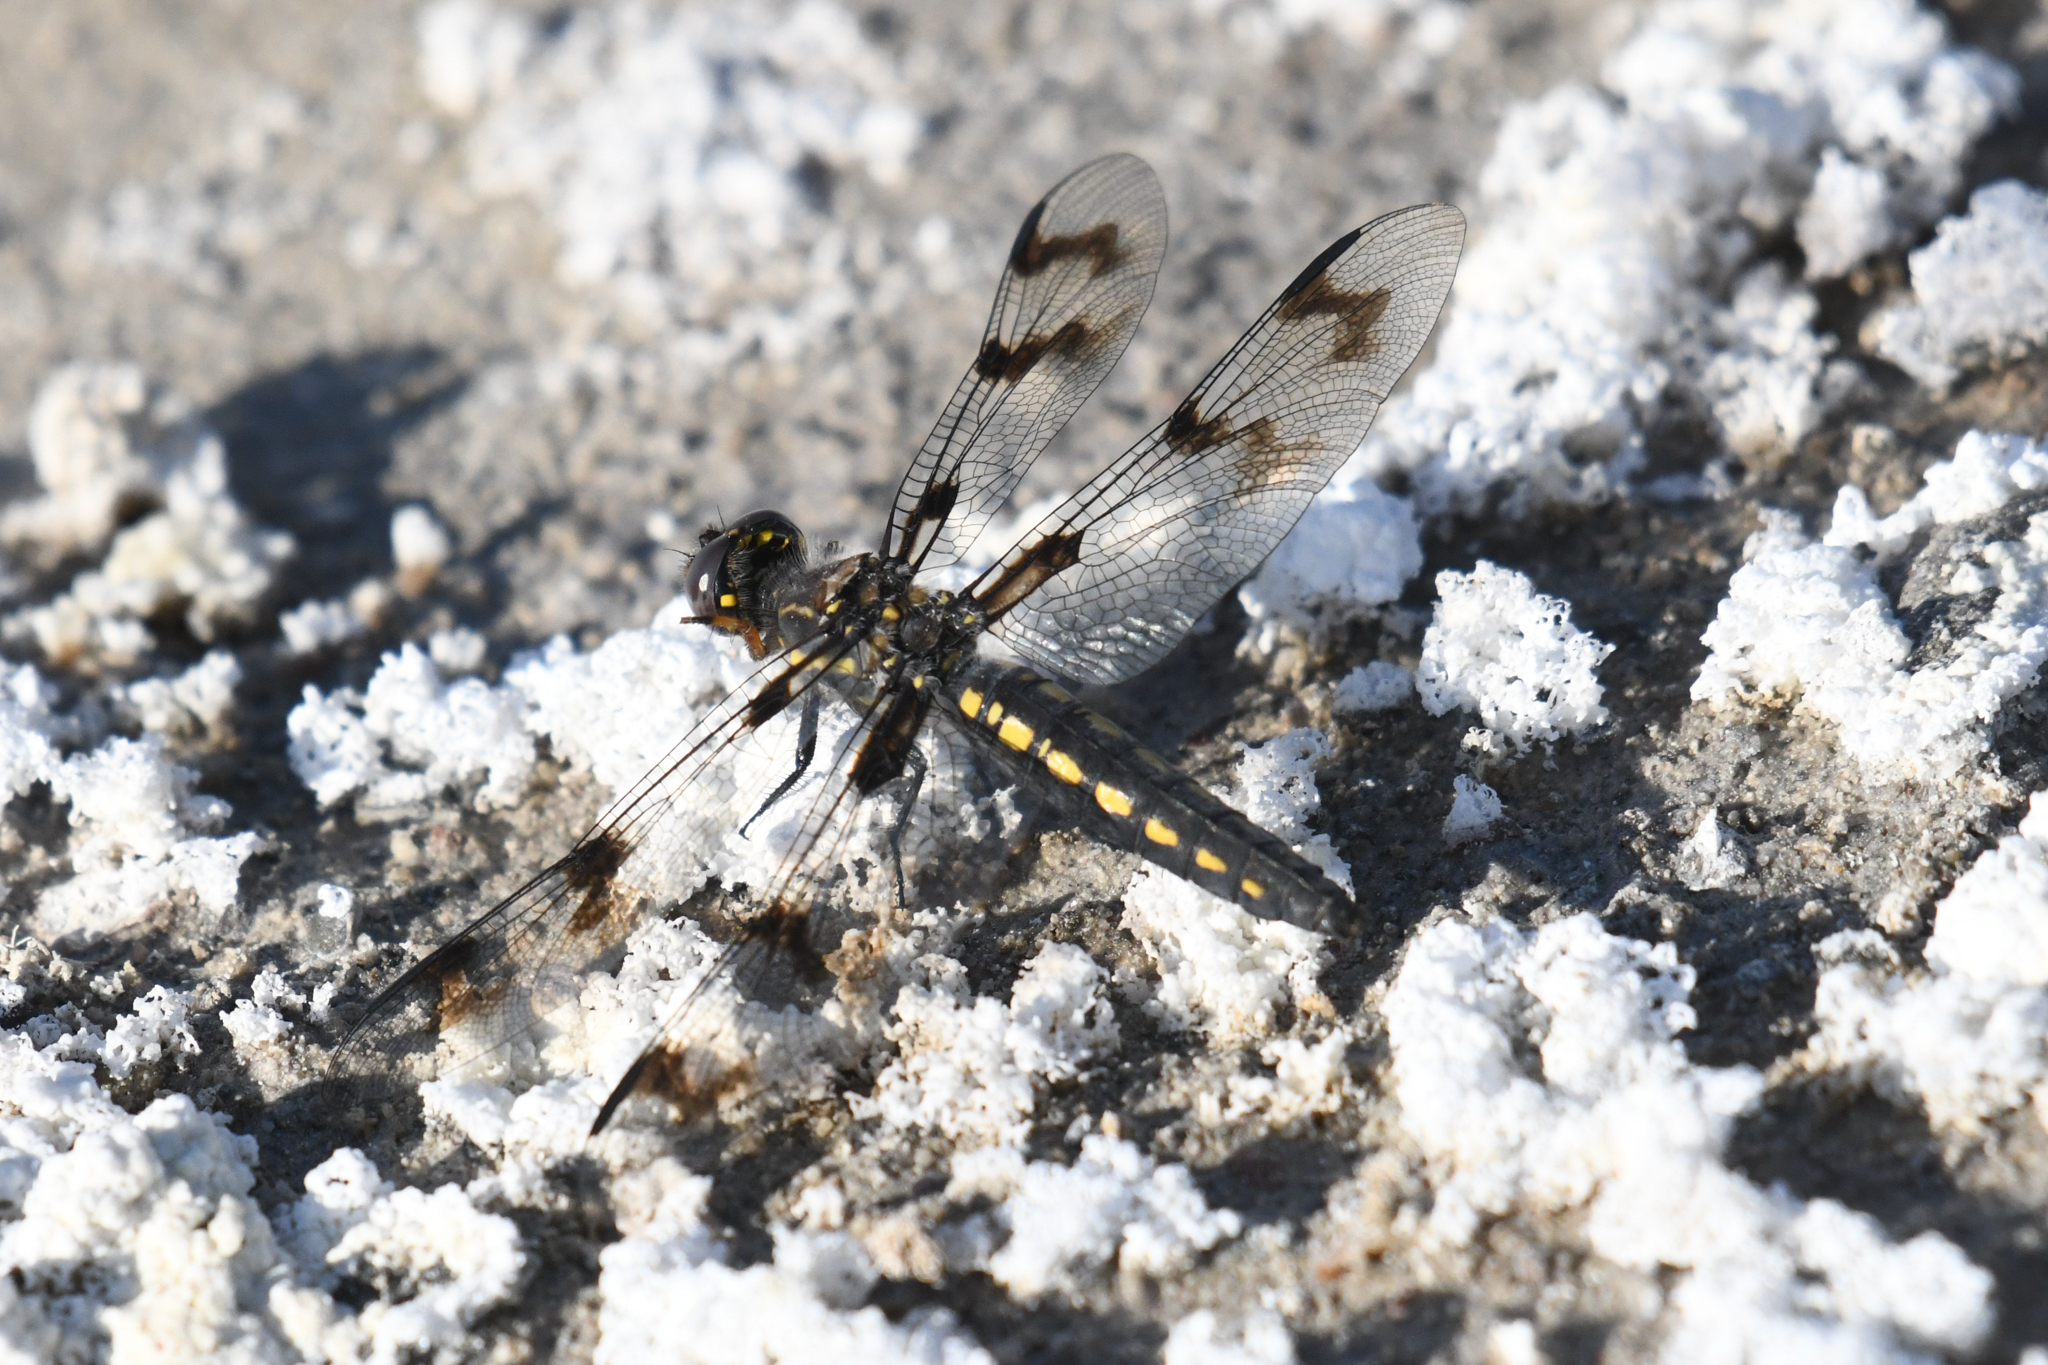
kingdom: Animalia
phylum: Arthropoda
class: Insecta
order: Odonata
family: Libellulidae
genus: Plathemis
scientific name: Plathemis subornata
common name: Desert whitetail
